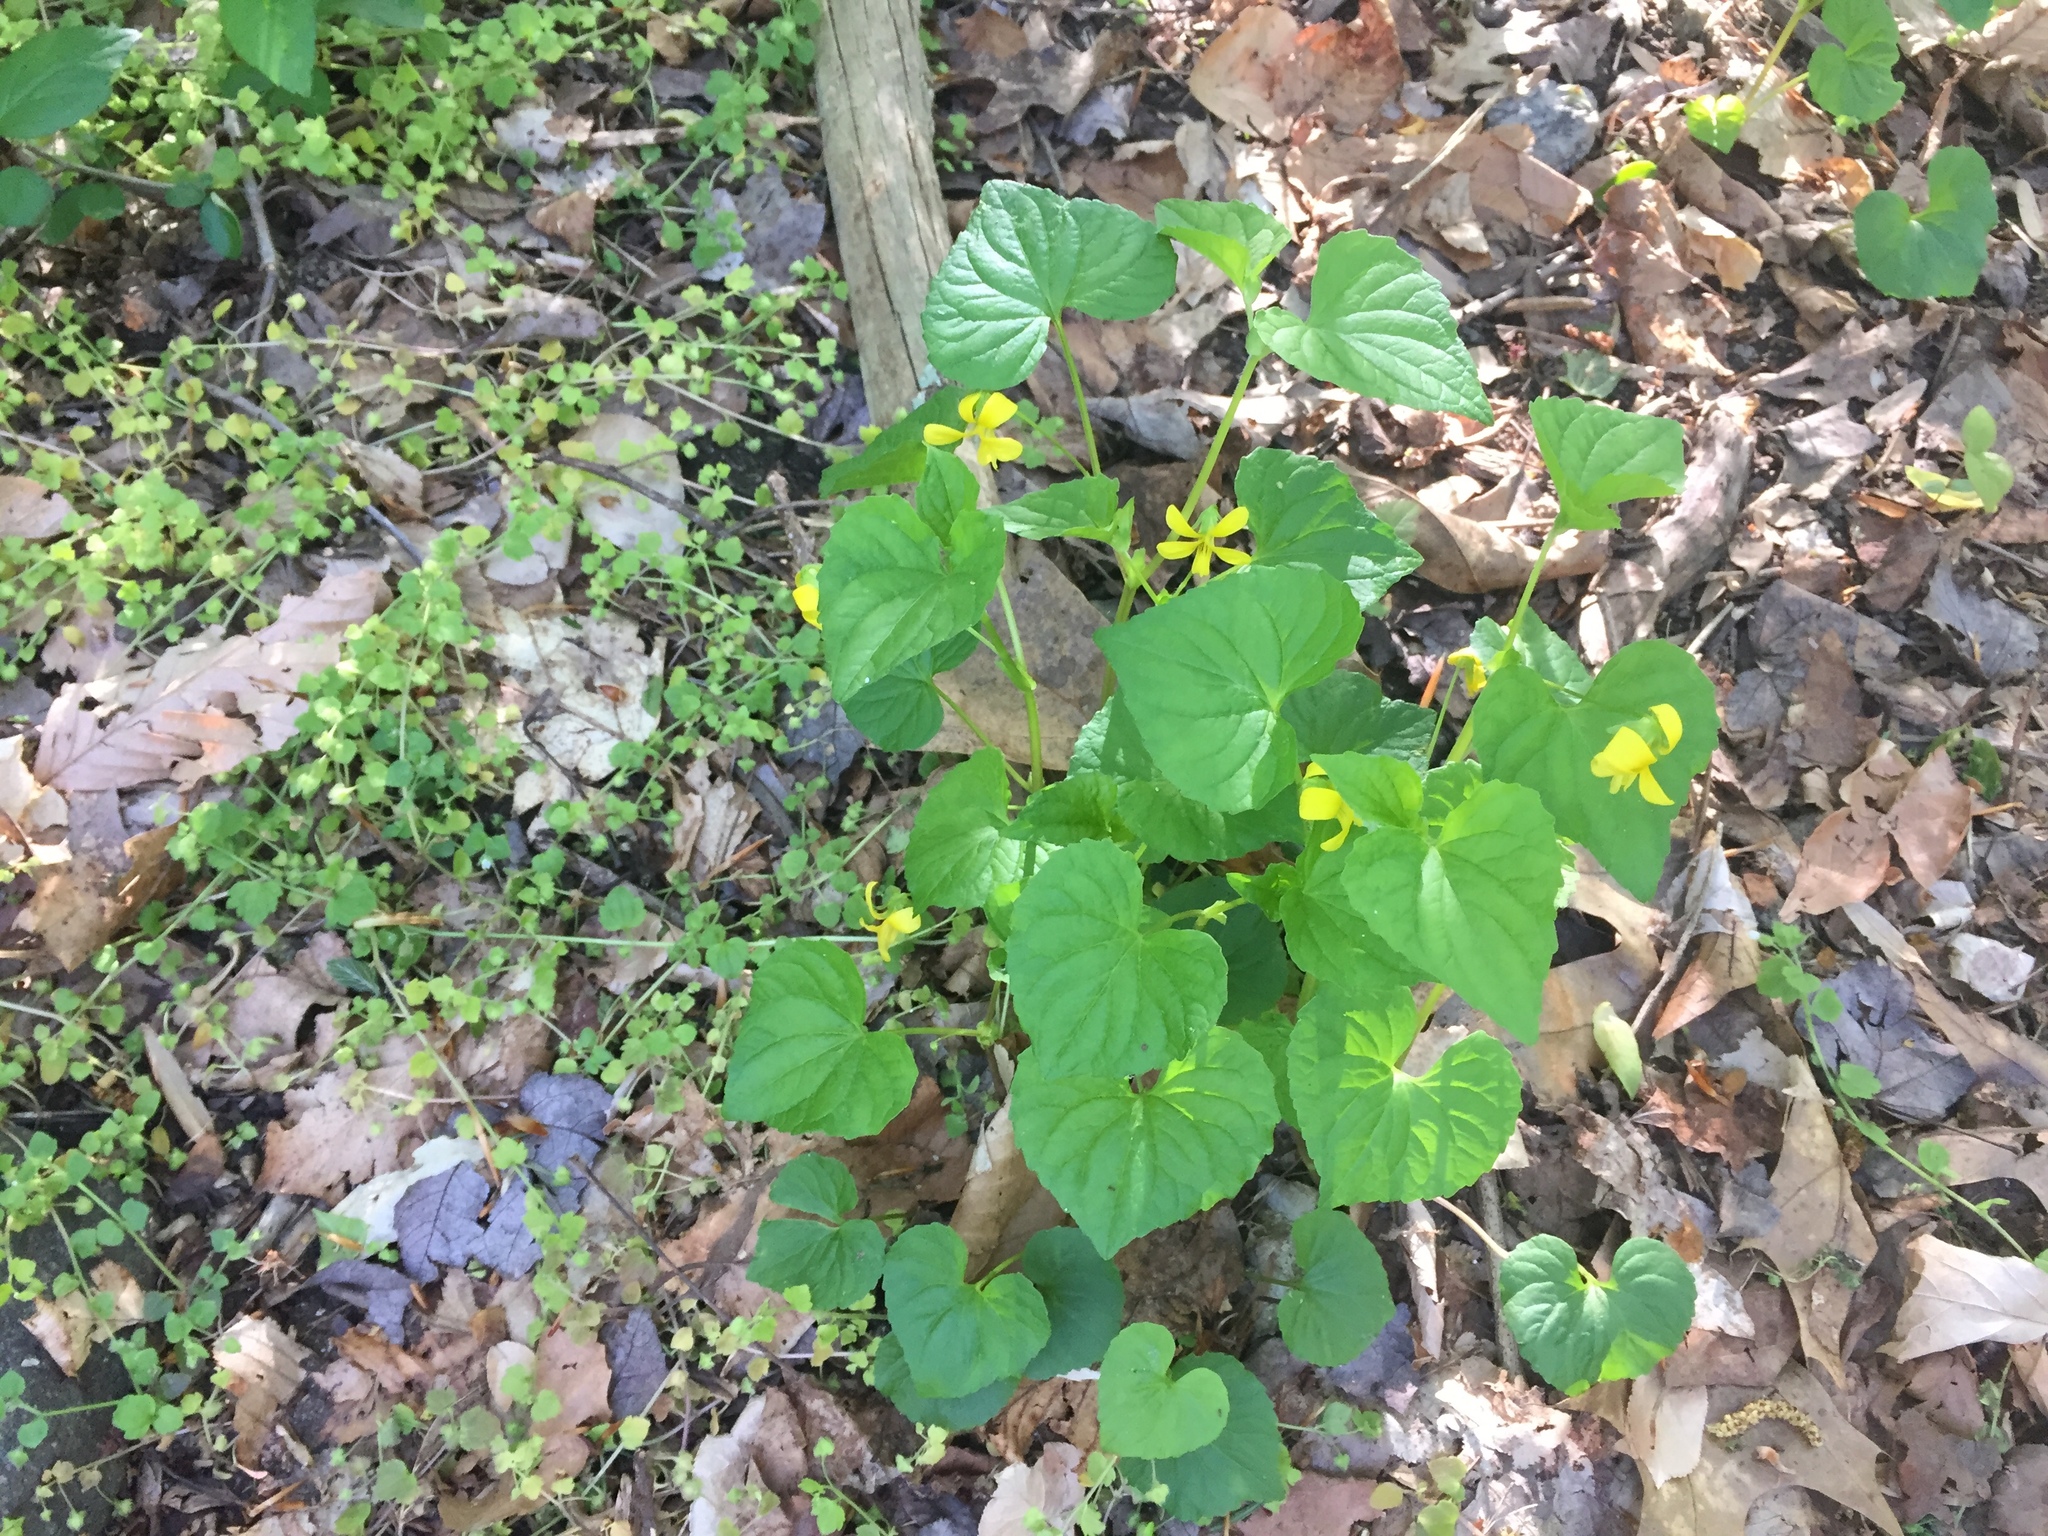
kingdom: Plantae
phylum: Tracheophyta
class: Magnoliopsida
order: Malpighiales
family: Violaceae
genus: Viola
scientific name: Viola eriocarpa
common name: Smooth yellow violet
